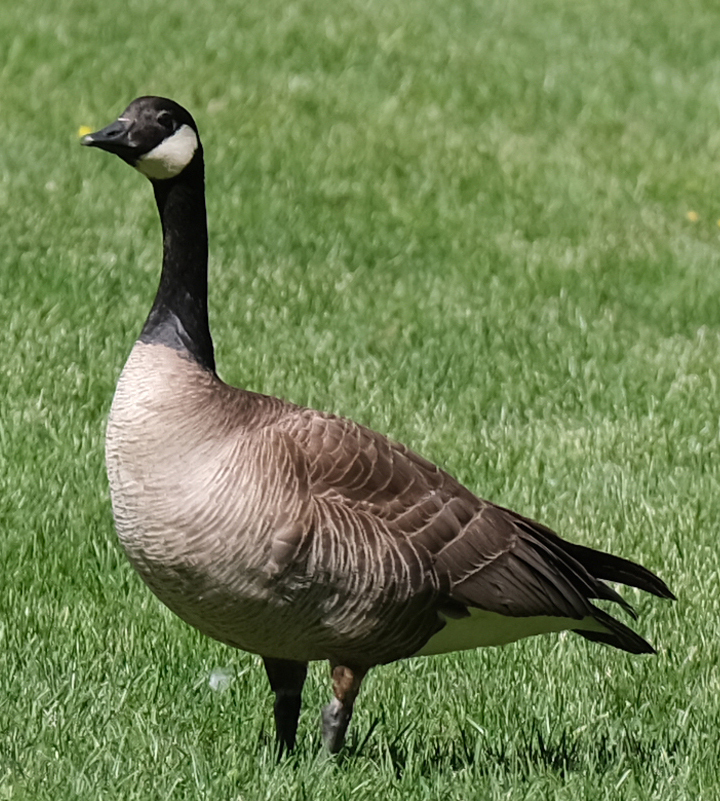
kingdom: Animalia
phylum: Chordata
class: Aves
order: Anseriformes
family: Anatidae
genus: Branta
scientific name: Branta canadensis
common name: Canada goose
